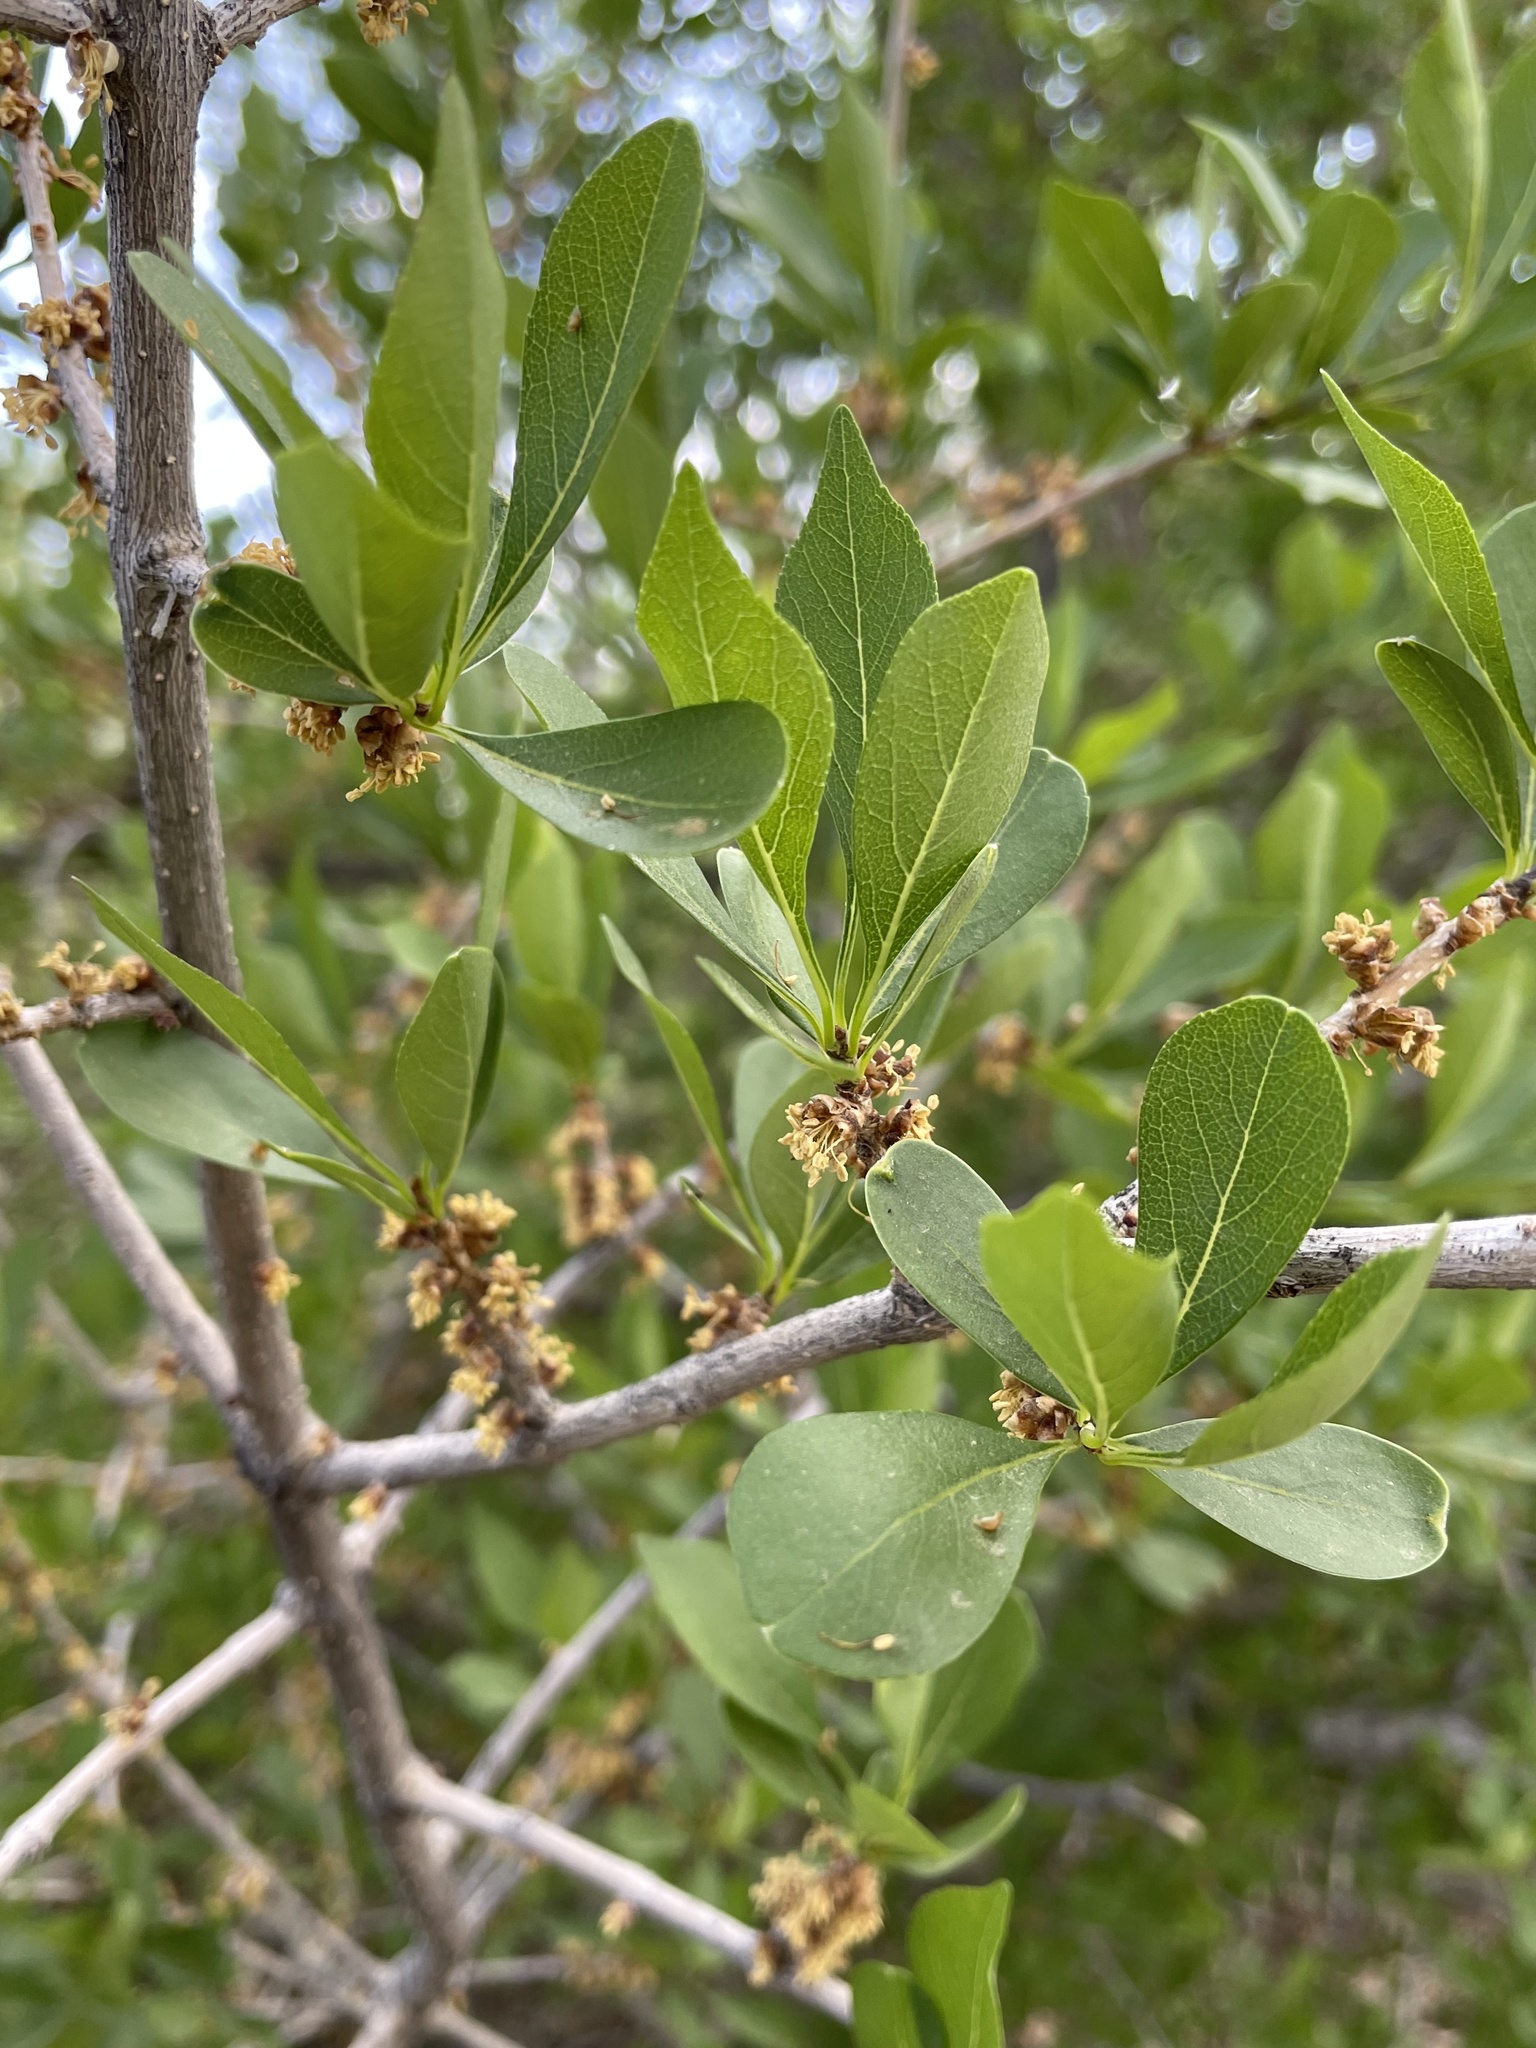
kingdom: Plantae
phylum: Tracheophyta
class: Magnoliopsida
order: Lamiales
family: Oleaceae
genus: Forestiera
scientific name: Forestiera pubescens
